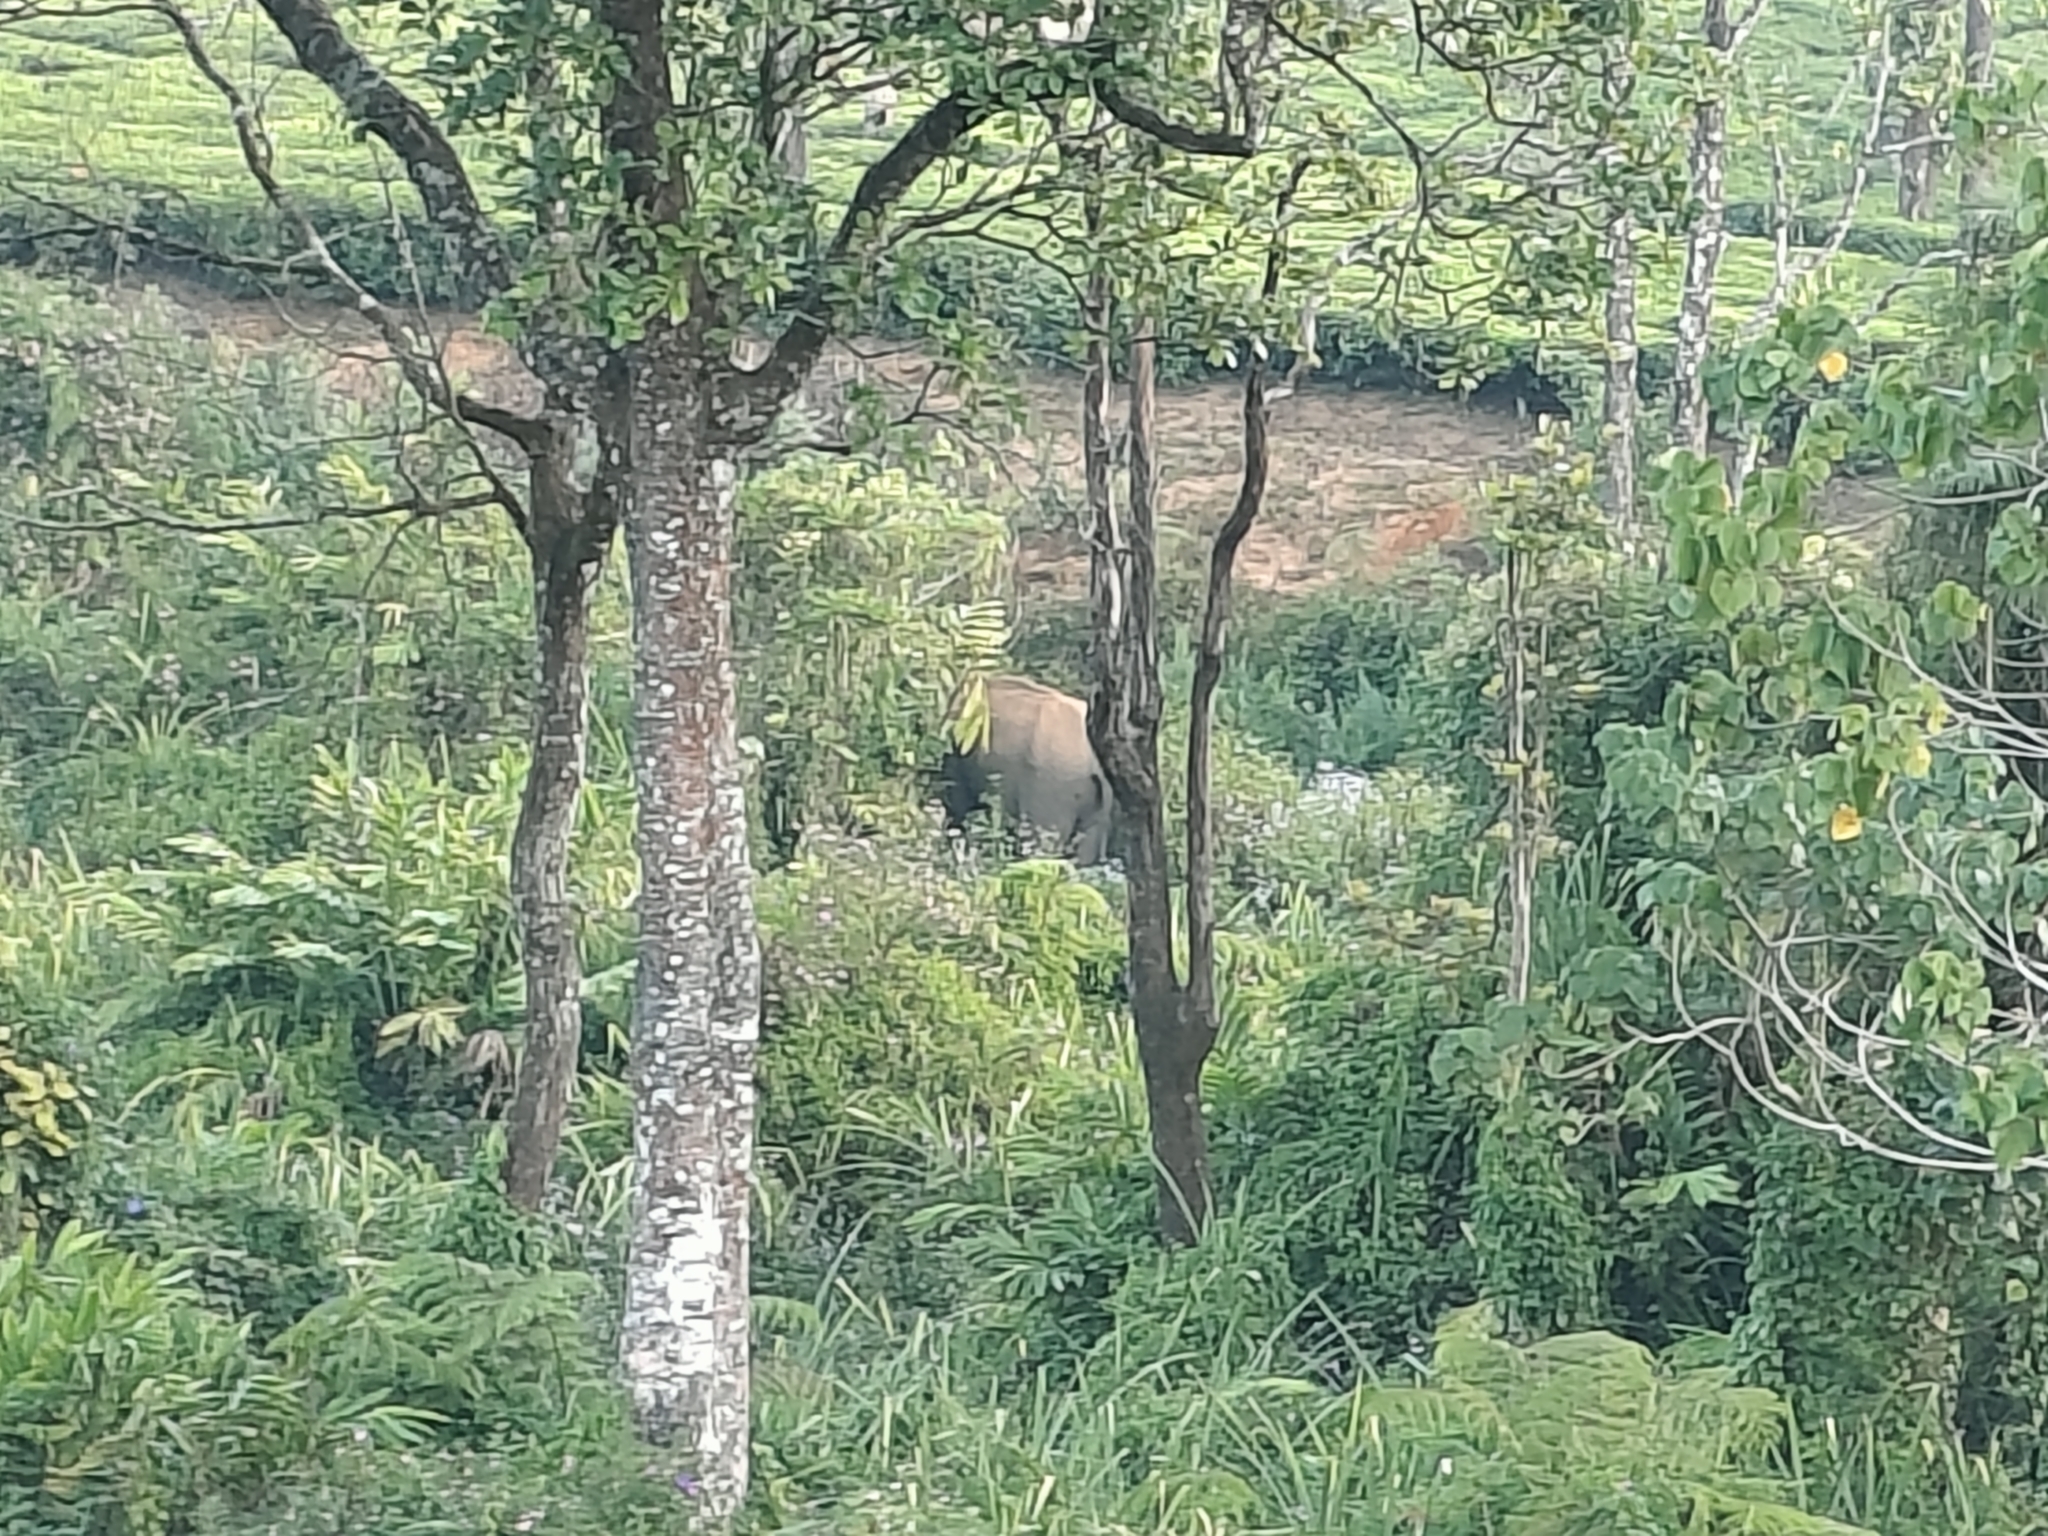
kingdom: Animalia
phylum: Chordata
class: Mammalia
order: Proboscidea
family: Elephantidae
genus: Elephas
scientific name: Elephas maximus
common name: Asian elephant
